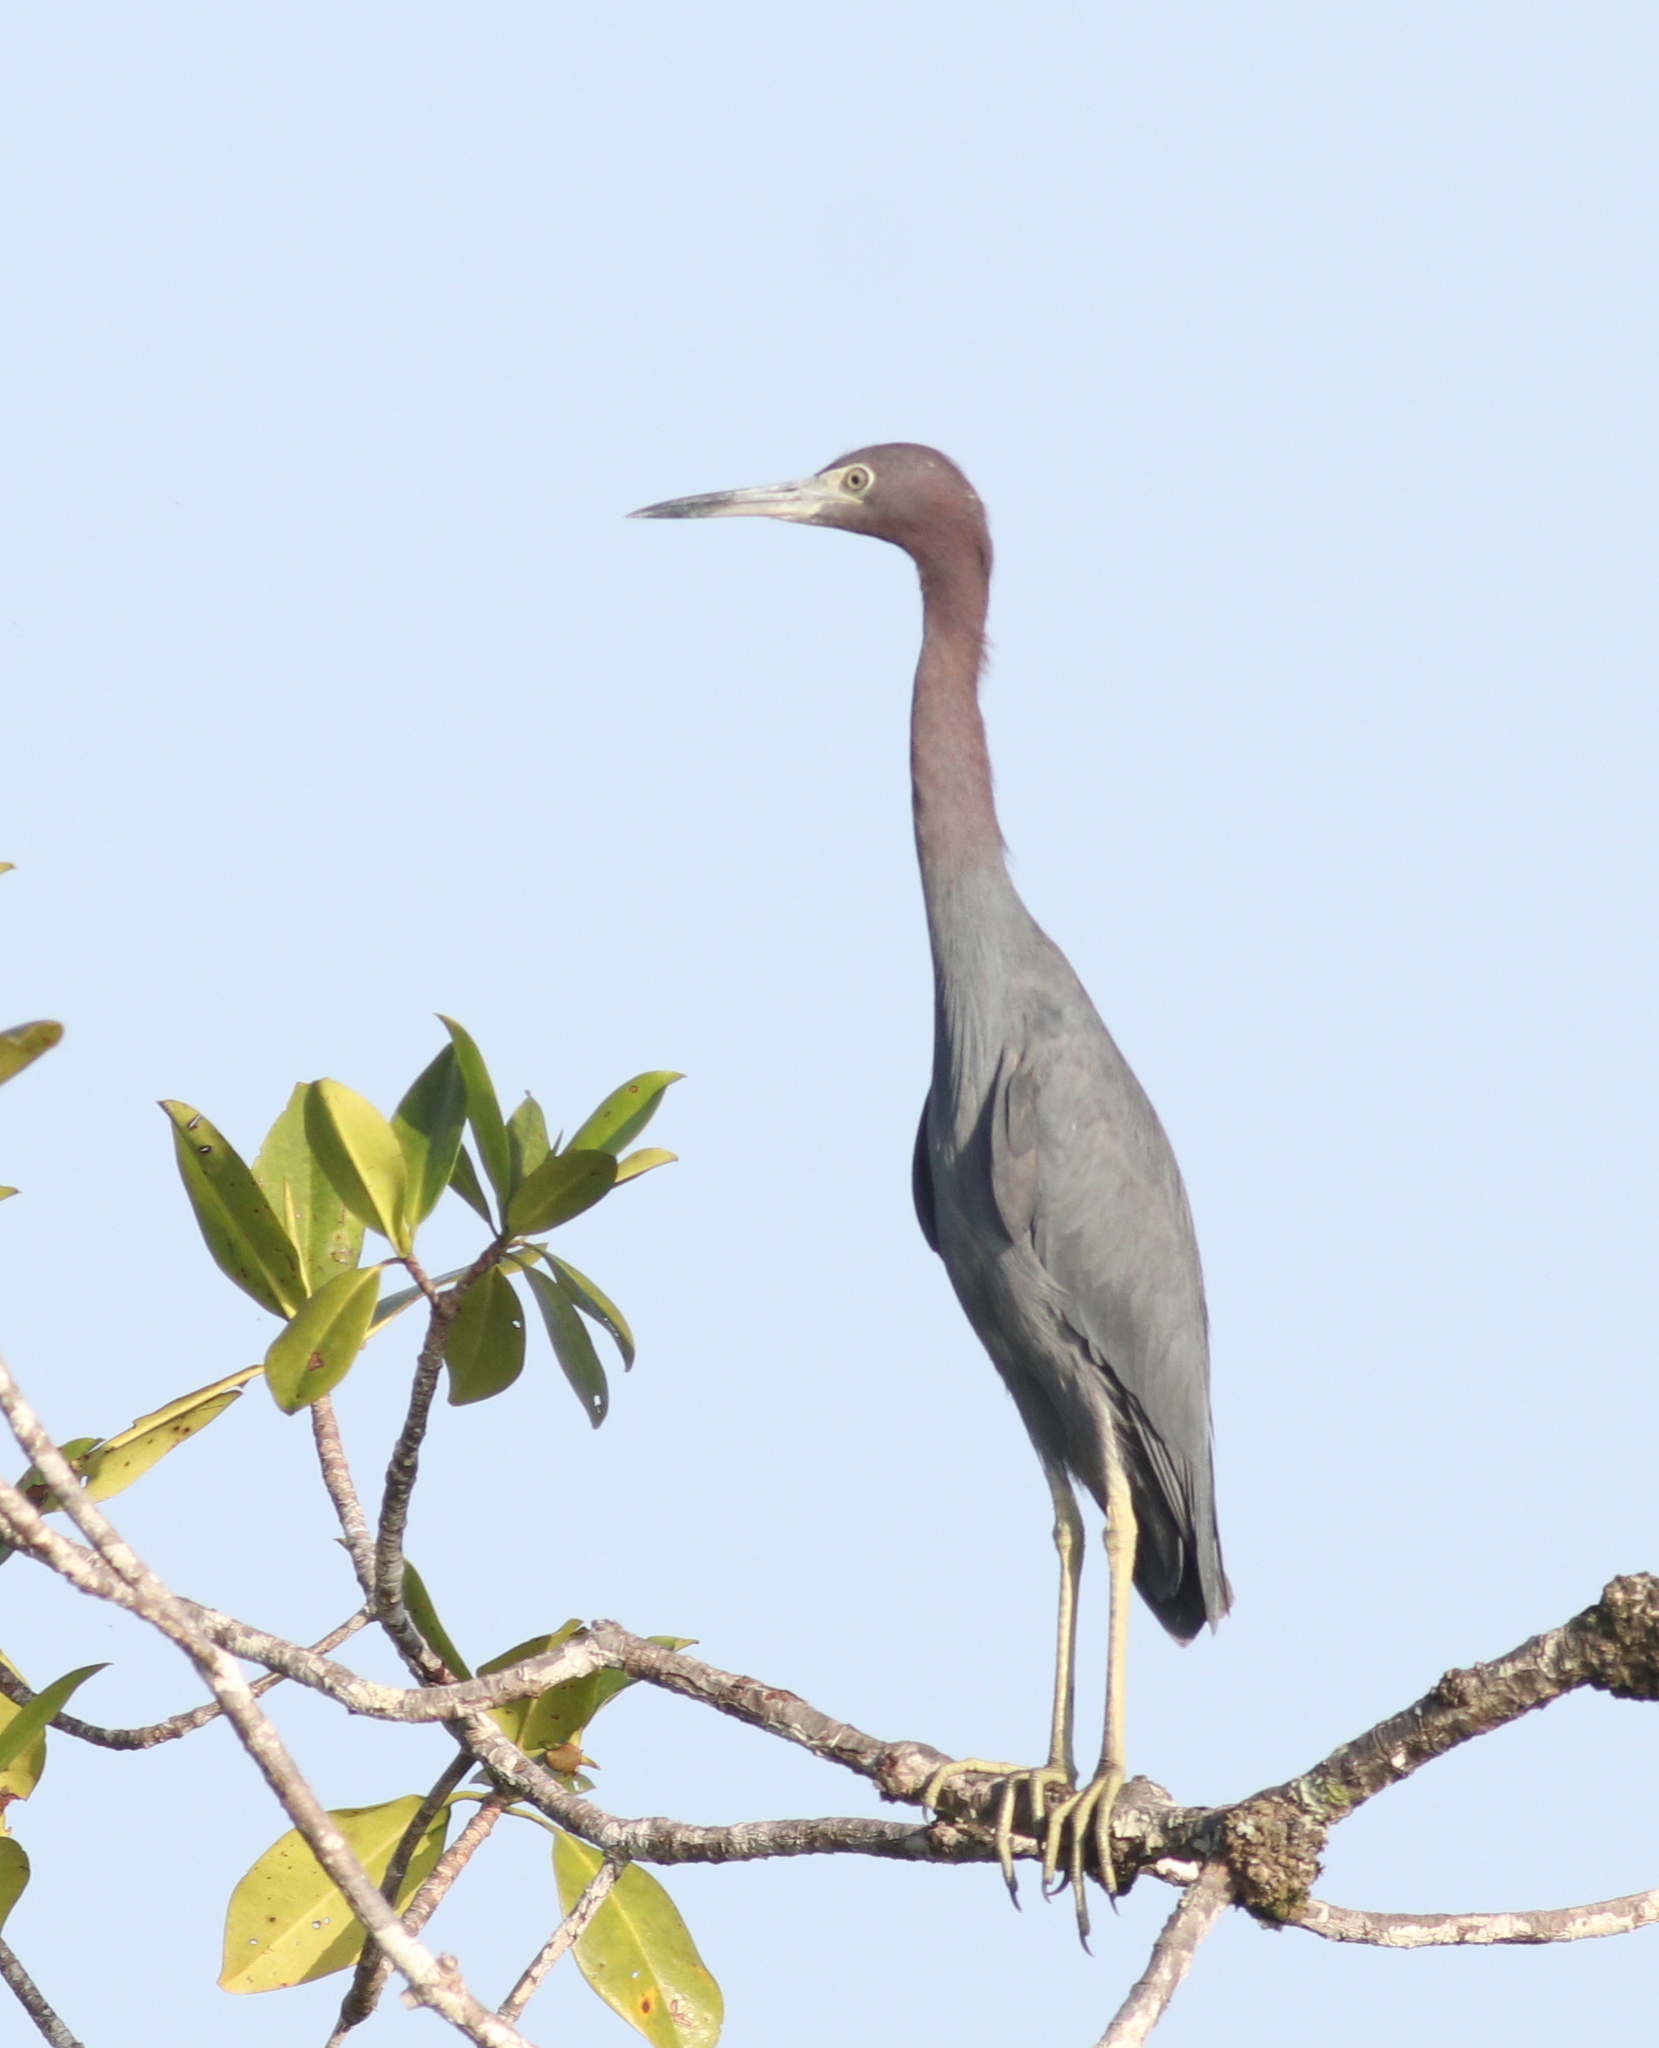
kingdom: Animalia
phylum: Chordata
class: Aves
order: Pelecaniformes
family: Ardeidae
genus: Egretta
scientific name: Egretta caerulea
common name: Little blue heron
